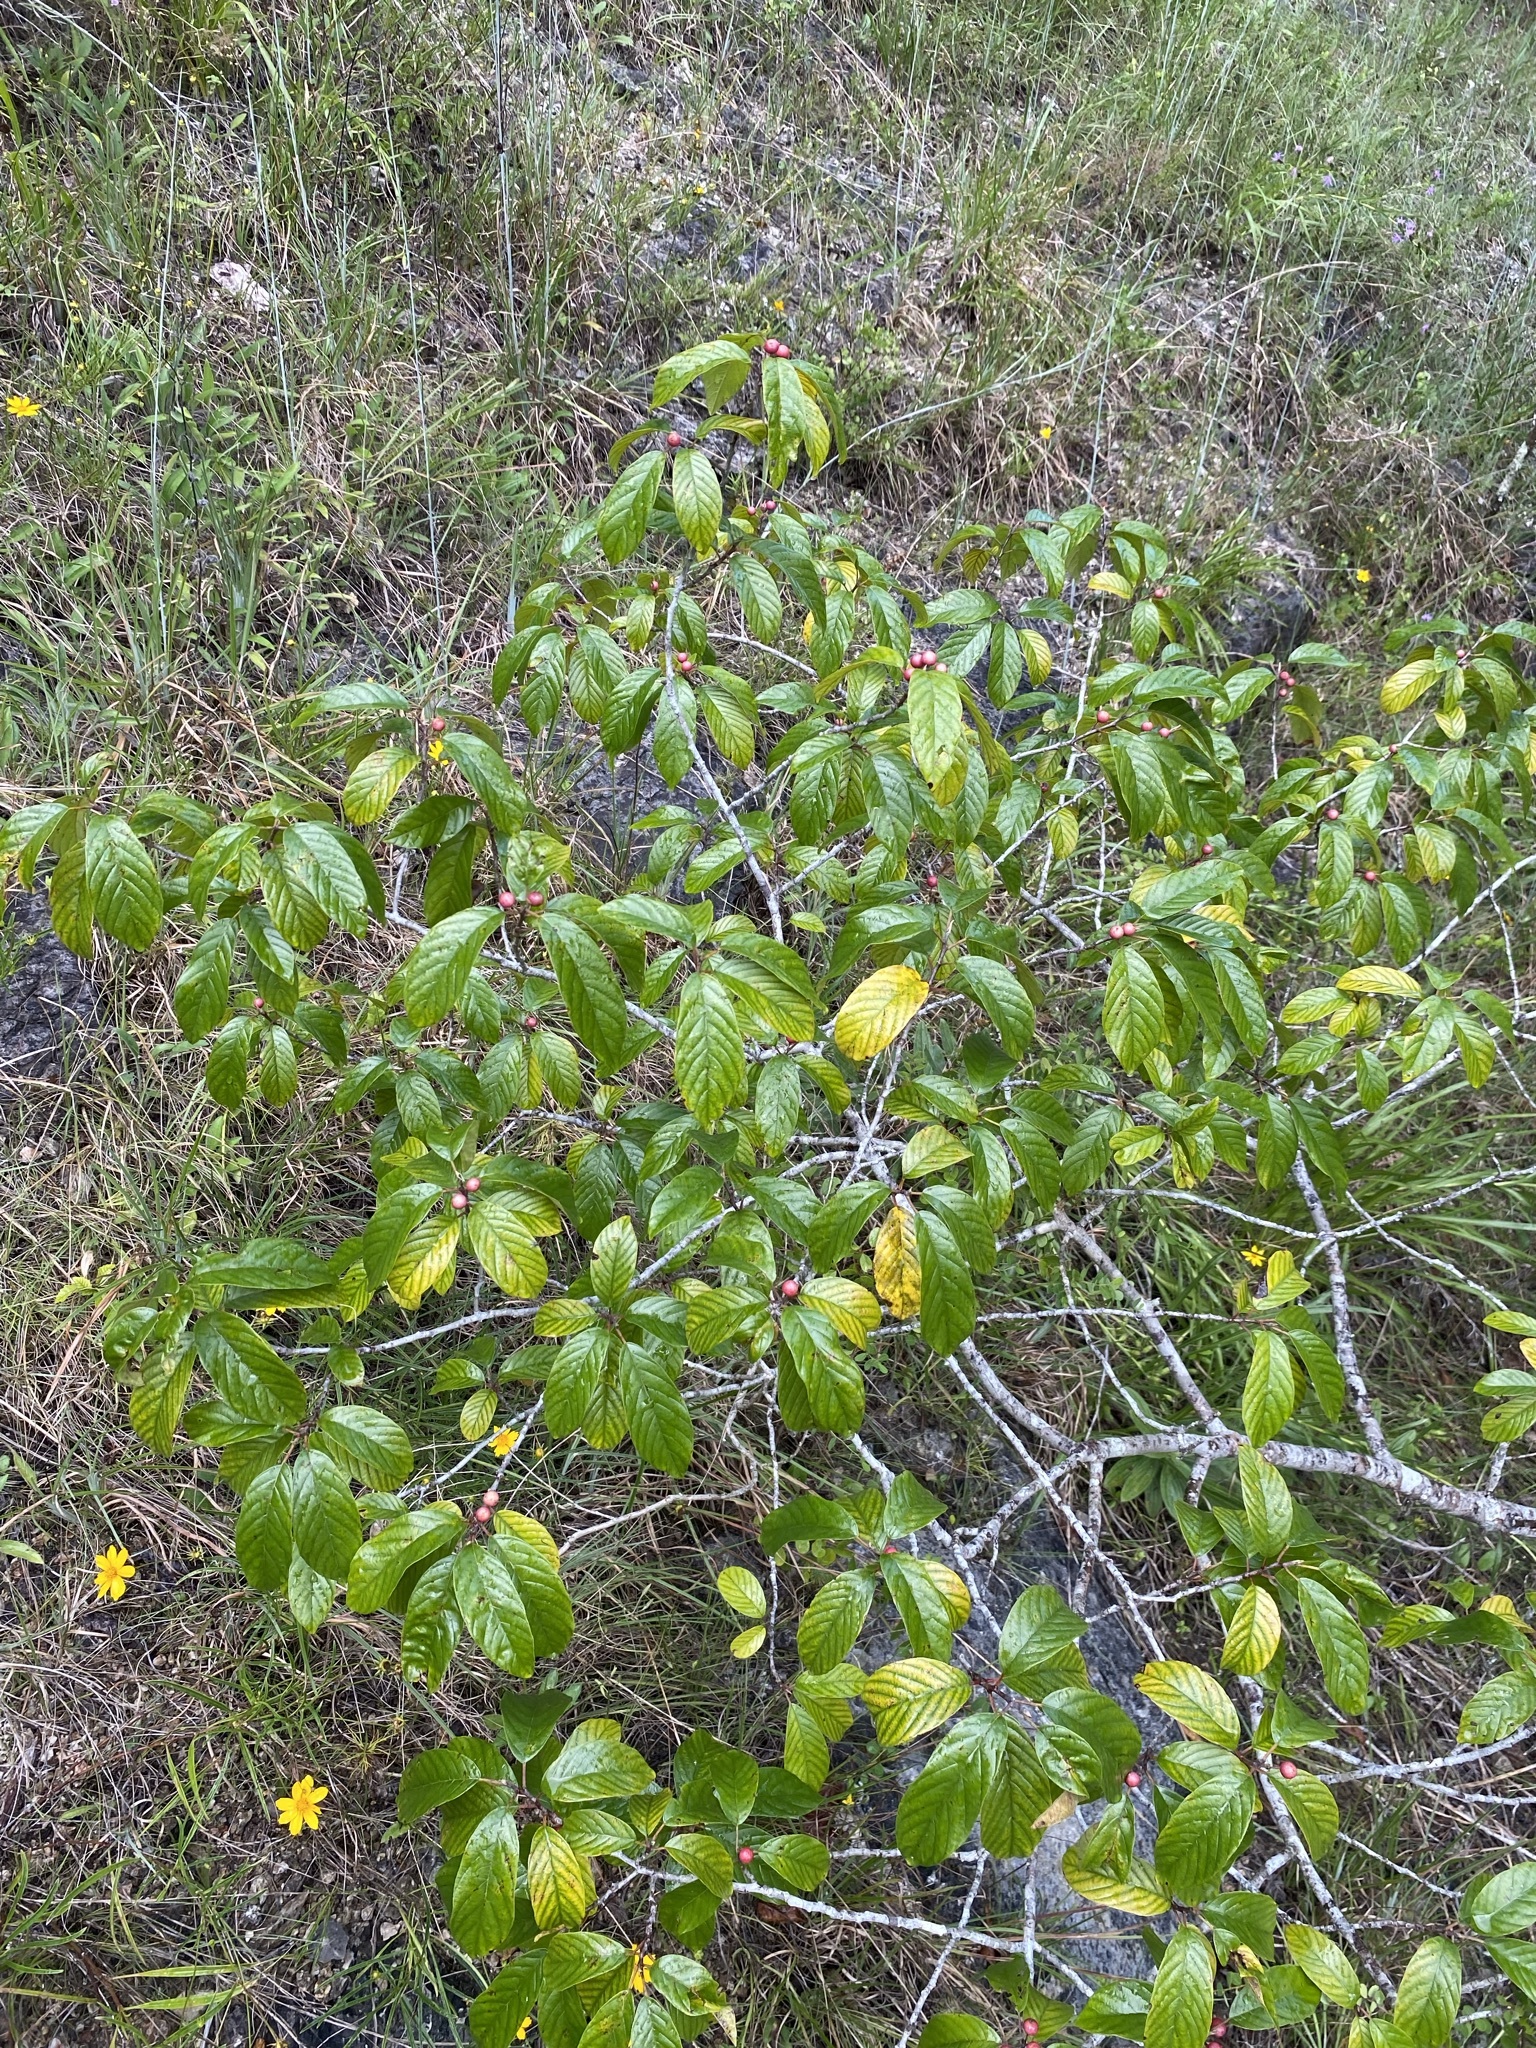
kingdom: Plantae
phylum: Tracheophyta
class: Magnoliopsida
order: Rosales
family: Rhamnaceae
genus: Frangula
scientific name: Frangula caroliniana
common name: Carolina buckthorn
